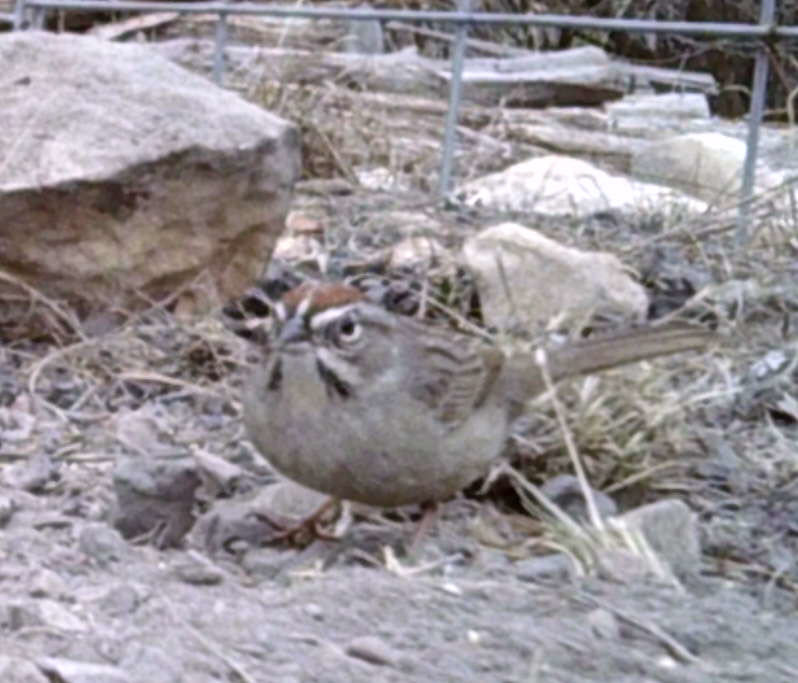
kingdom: Animalia
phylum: Chordata
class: Aves
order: Passeriformes
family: Passerellidae
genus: Aimophila
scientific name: Aimophila ruficeps
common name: Rufous-crowned sparrow
